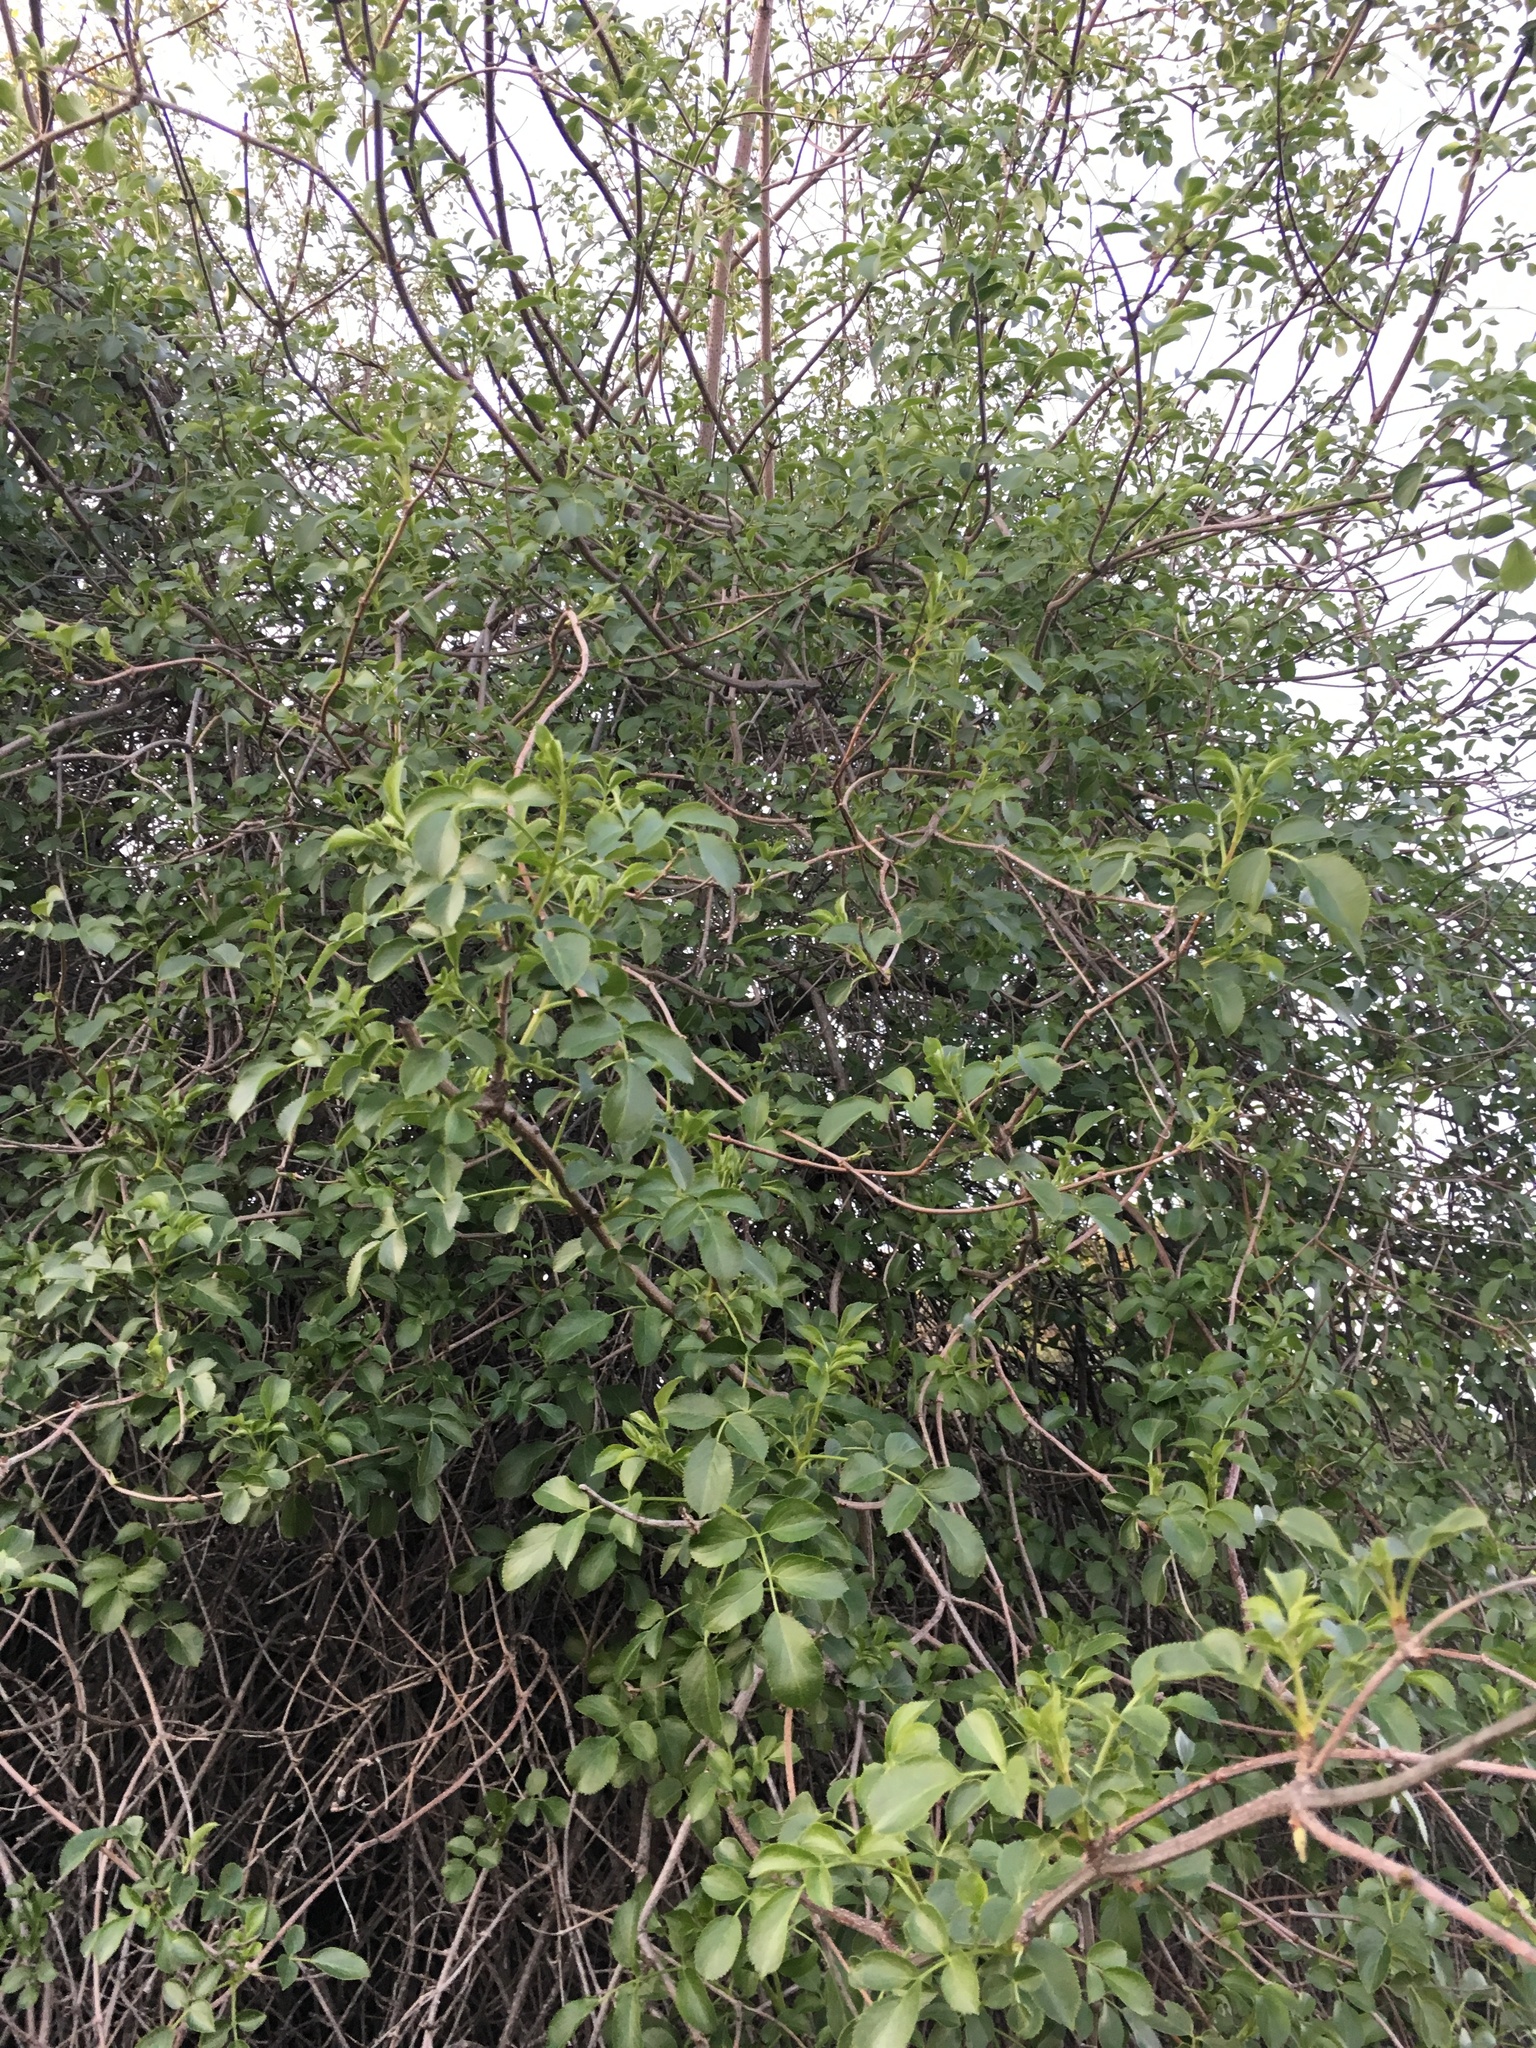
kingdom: Plantae
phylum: Tracheophyta
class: Magnoliopsida
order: Dipsacales
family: Viburnaceae
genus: Sambucus
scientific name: Sambucus cerulea
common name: Blue elder
